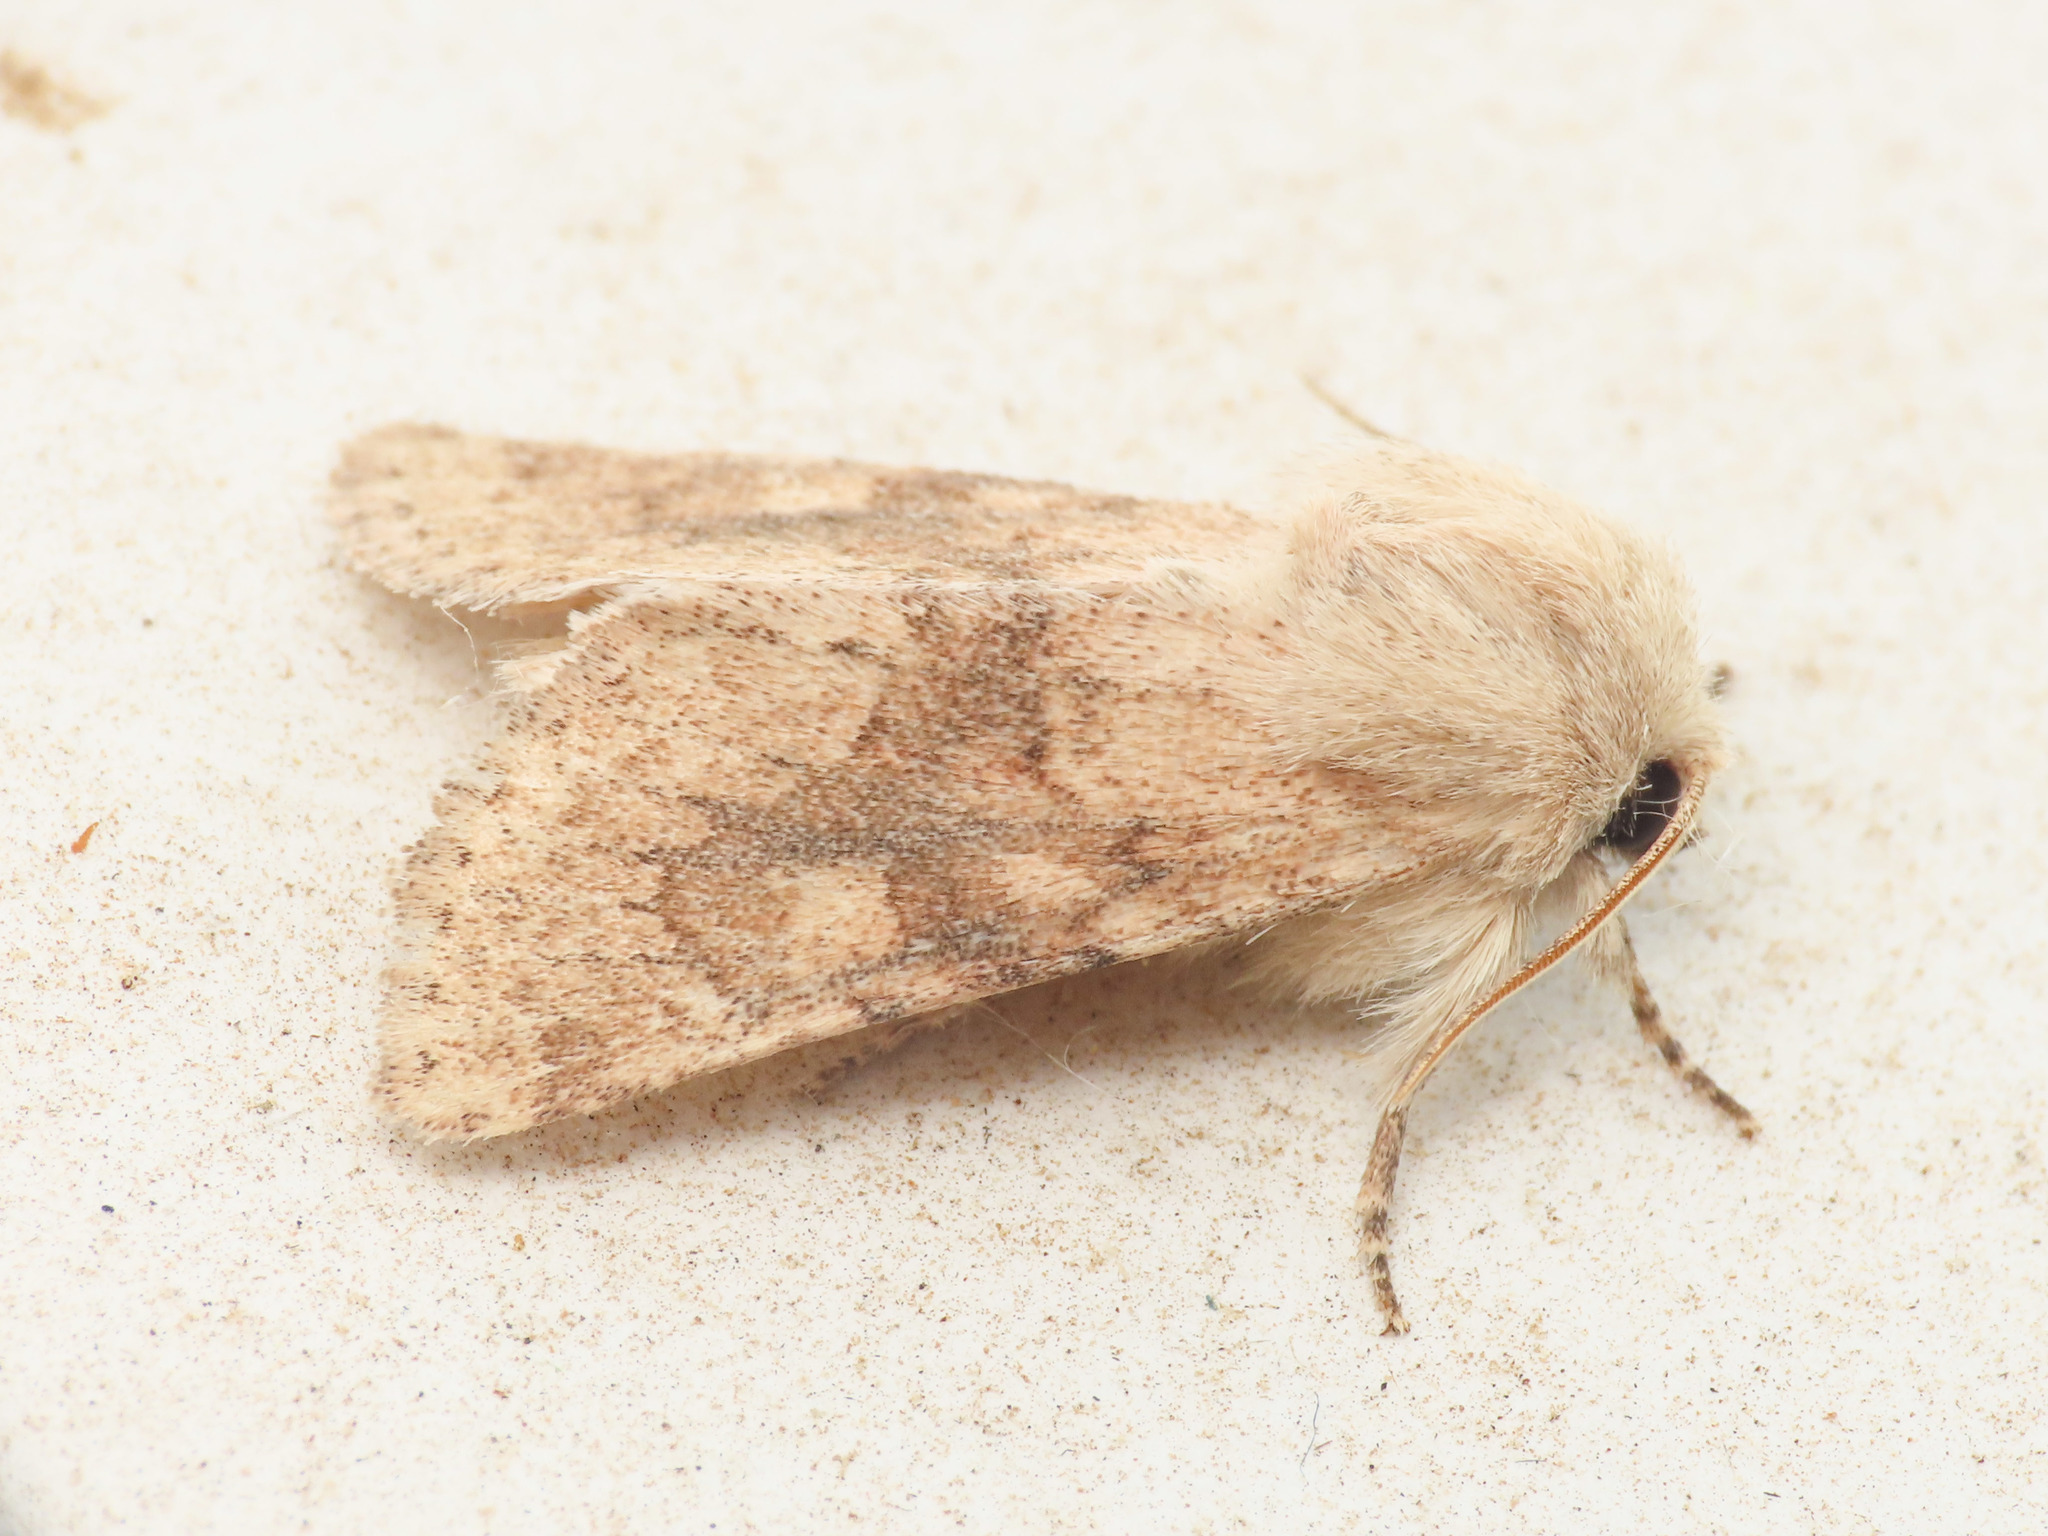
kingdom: Animalia
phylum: Arthropoda
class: Insecta
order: Lepidoptera
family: Noctuidae
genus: Luperina
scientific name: Luperina dumerilii
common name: Dumeril's rustic
